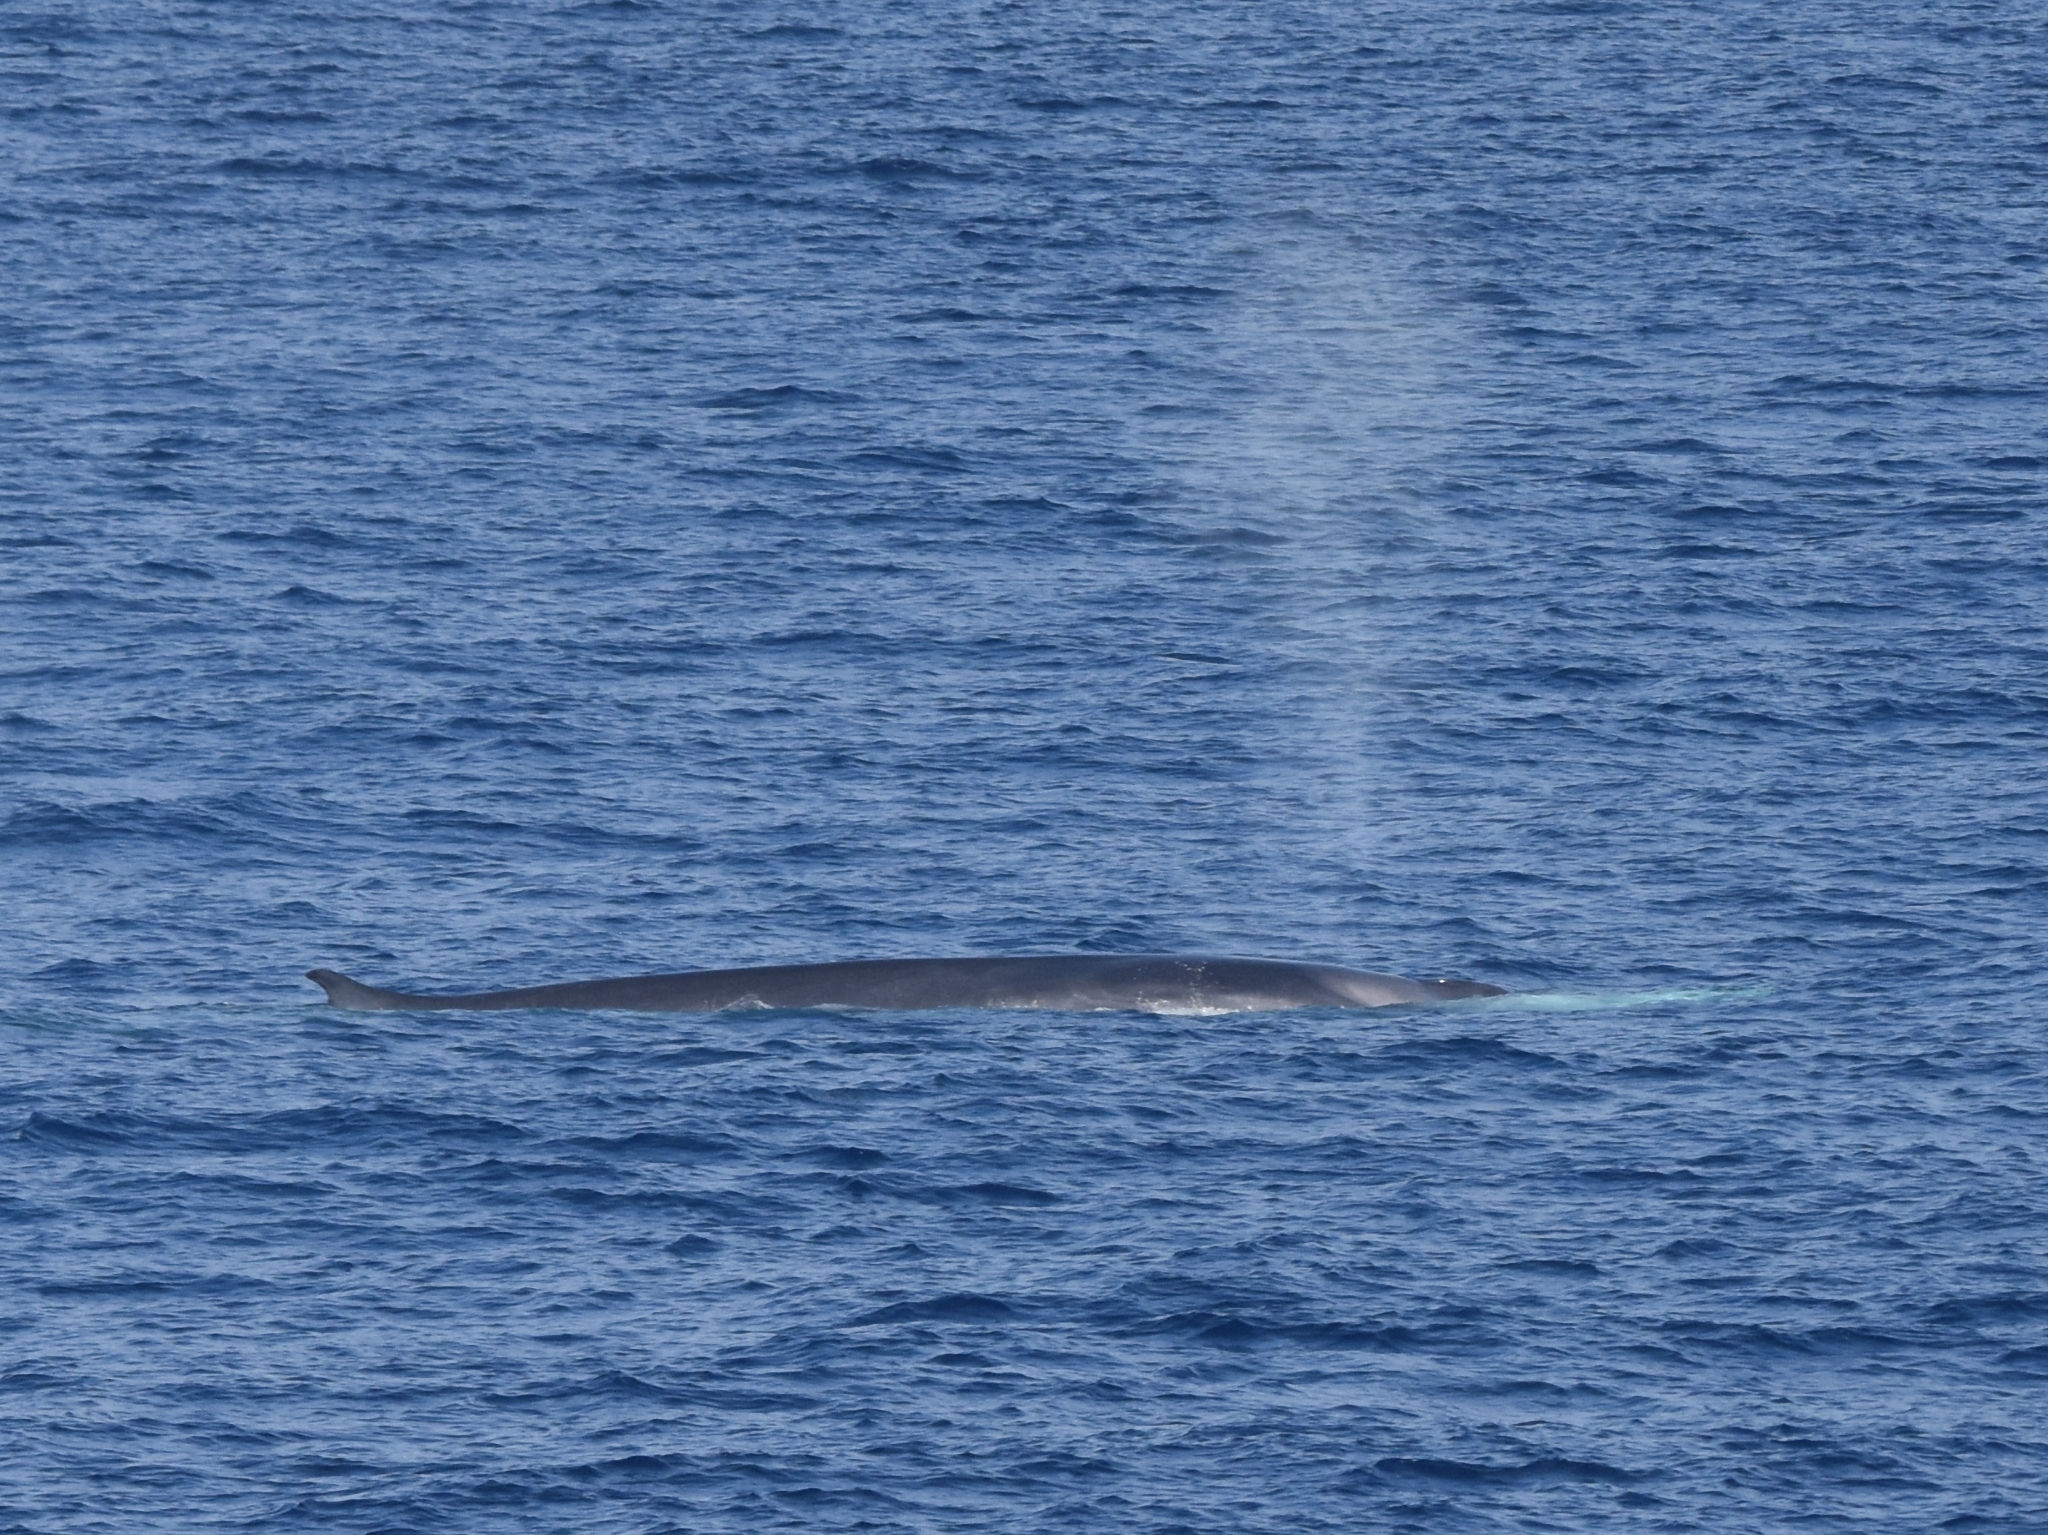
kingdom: Animalia
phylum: Chordata
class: Mammalia
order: Cetacea
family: Balaenopteridae
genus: Balaenoptera
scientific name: Balaenoptera physalus
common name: Fin whale
